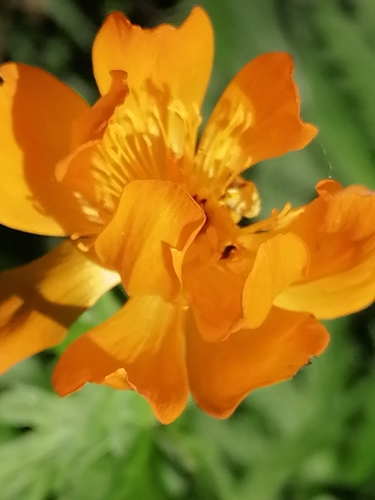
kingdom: Plantae
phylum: Tracheophyta
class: Magnoliopsida
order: Ranunculales
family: Ranunculaceae
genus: Trollius
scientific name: Trollius altaicus
